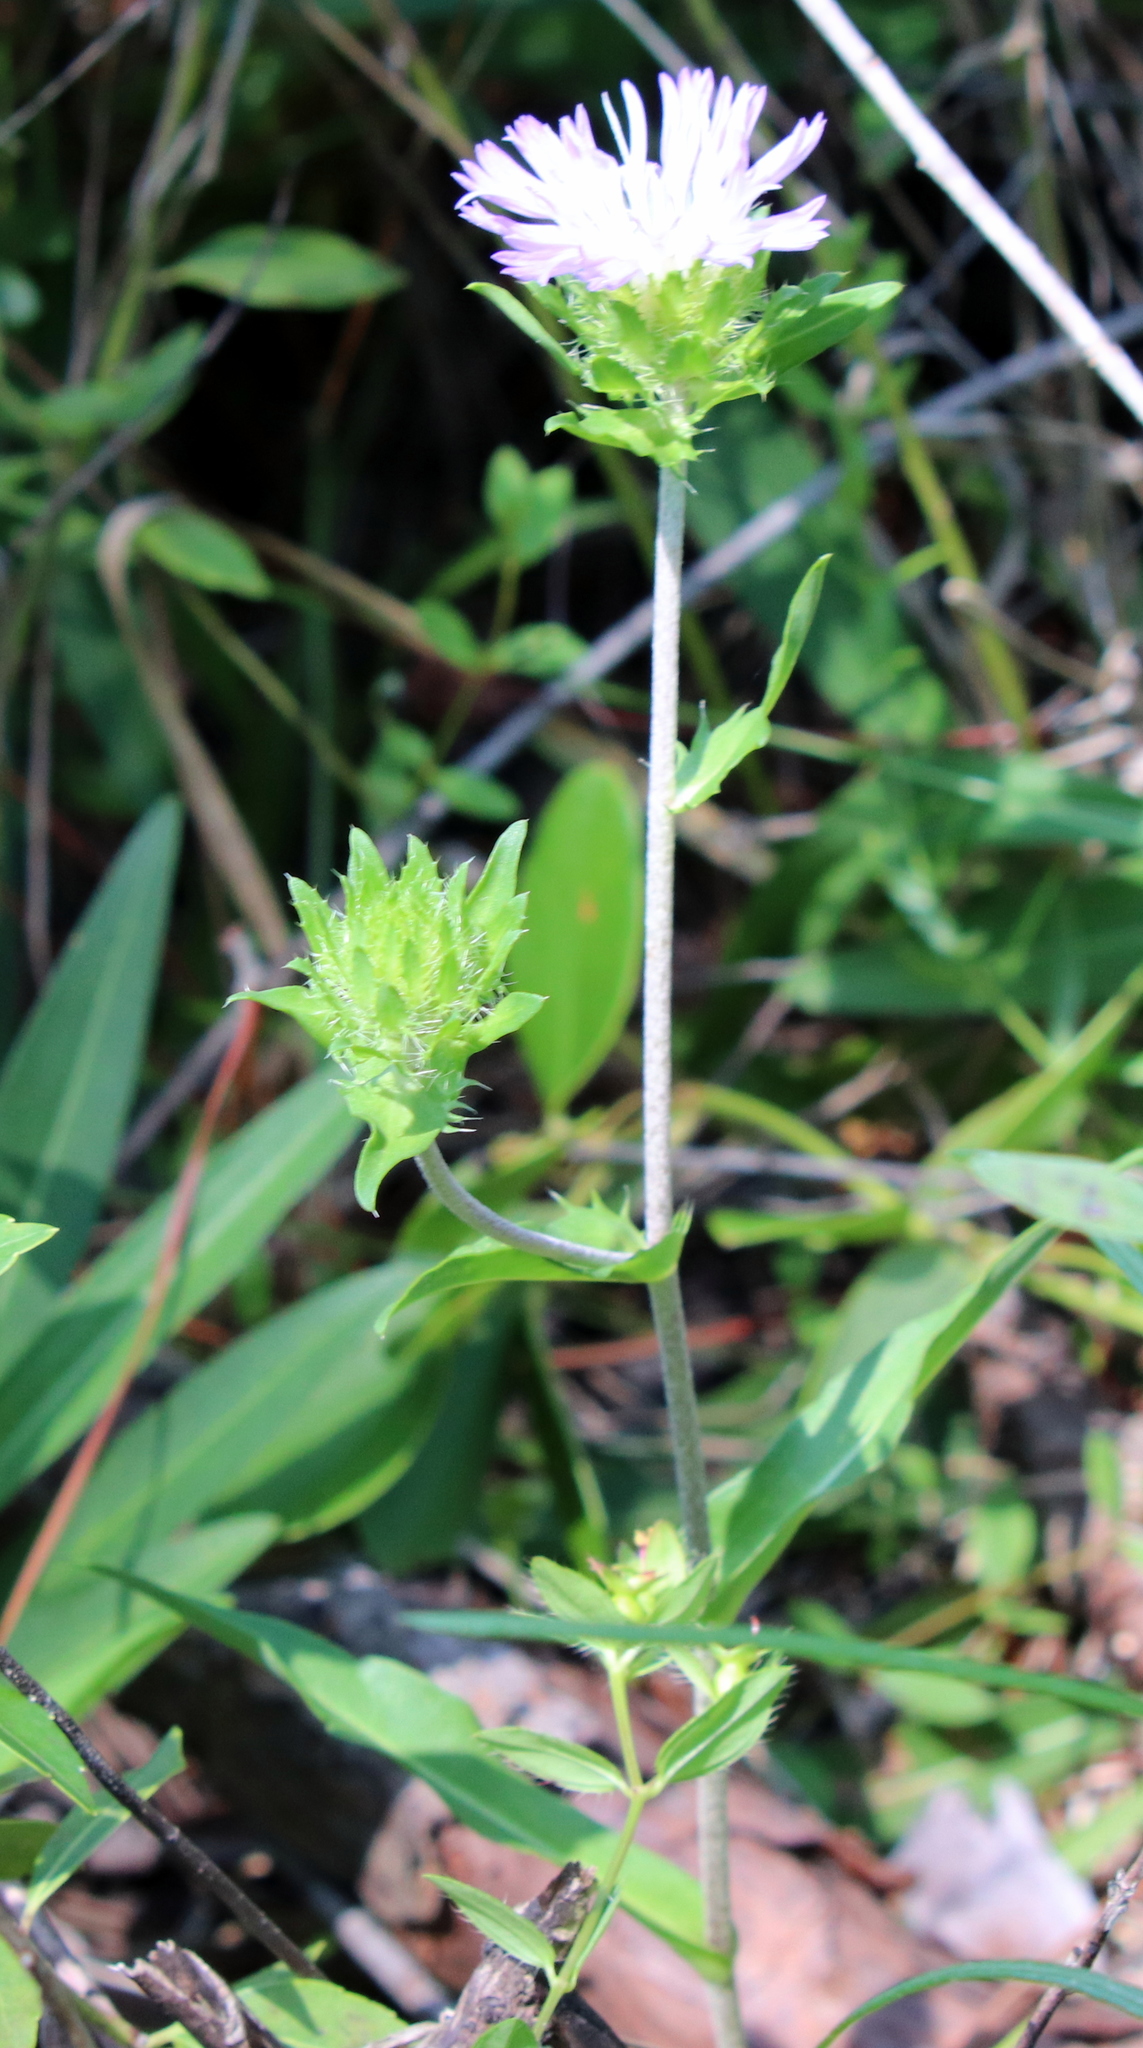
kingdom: Plantae
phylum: Tracheophyta
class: Magnoliopsida
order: Asterales
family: Asteraceae
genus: Stokesia
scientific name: Stokesia laevis
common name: Stokes'-aster
